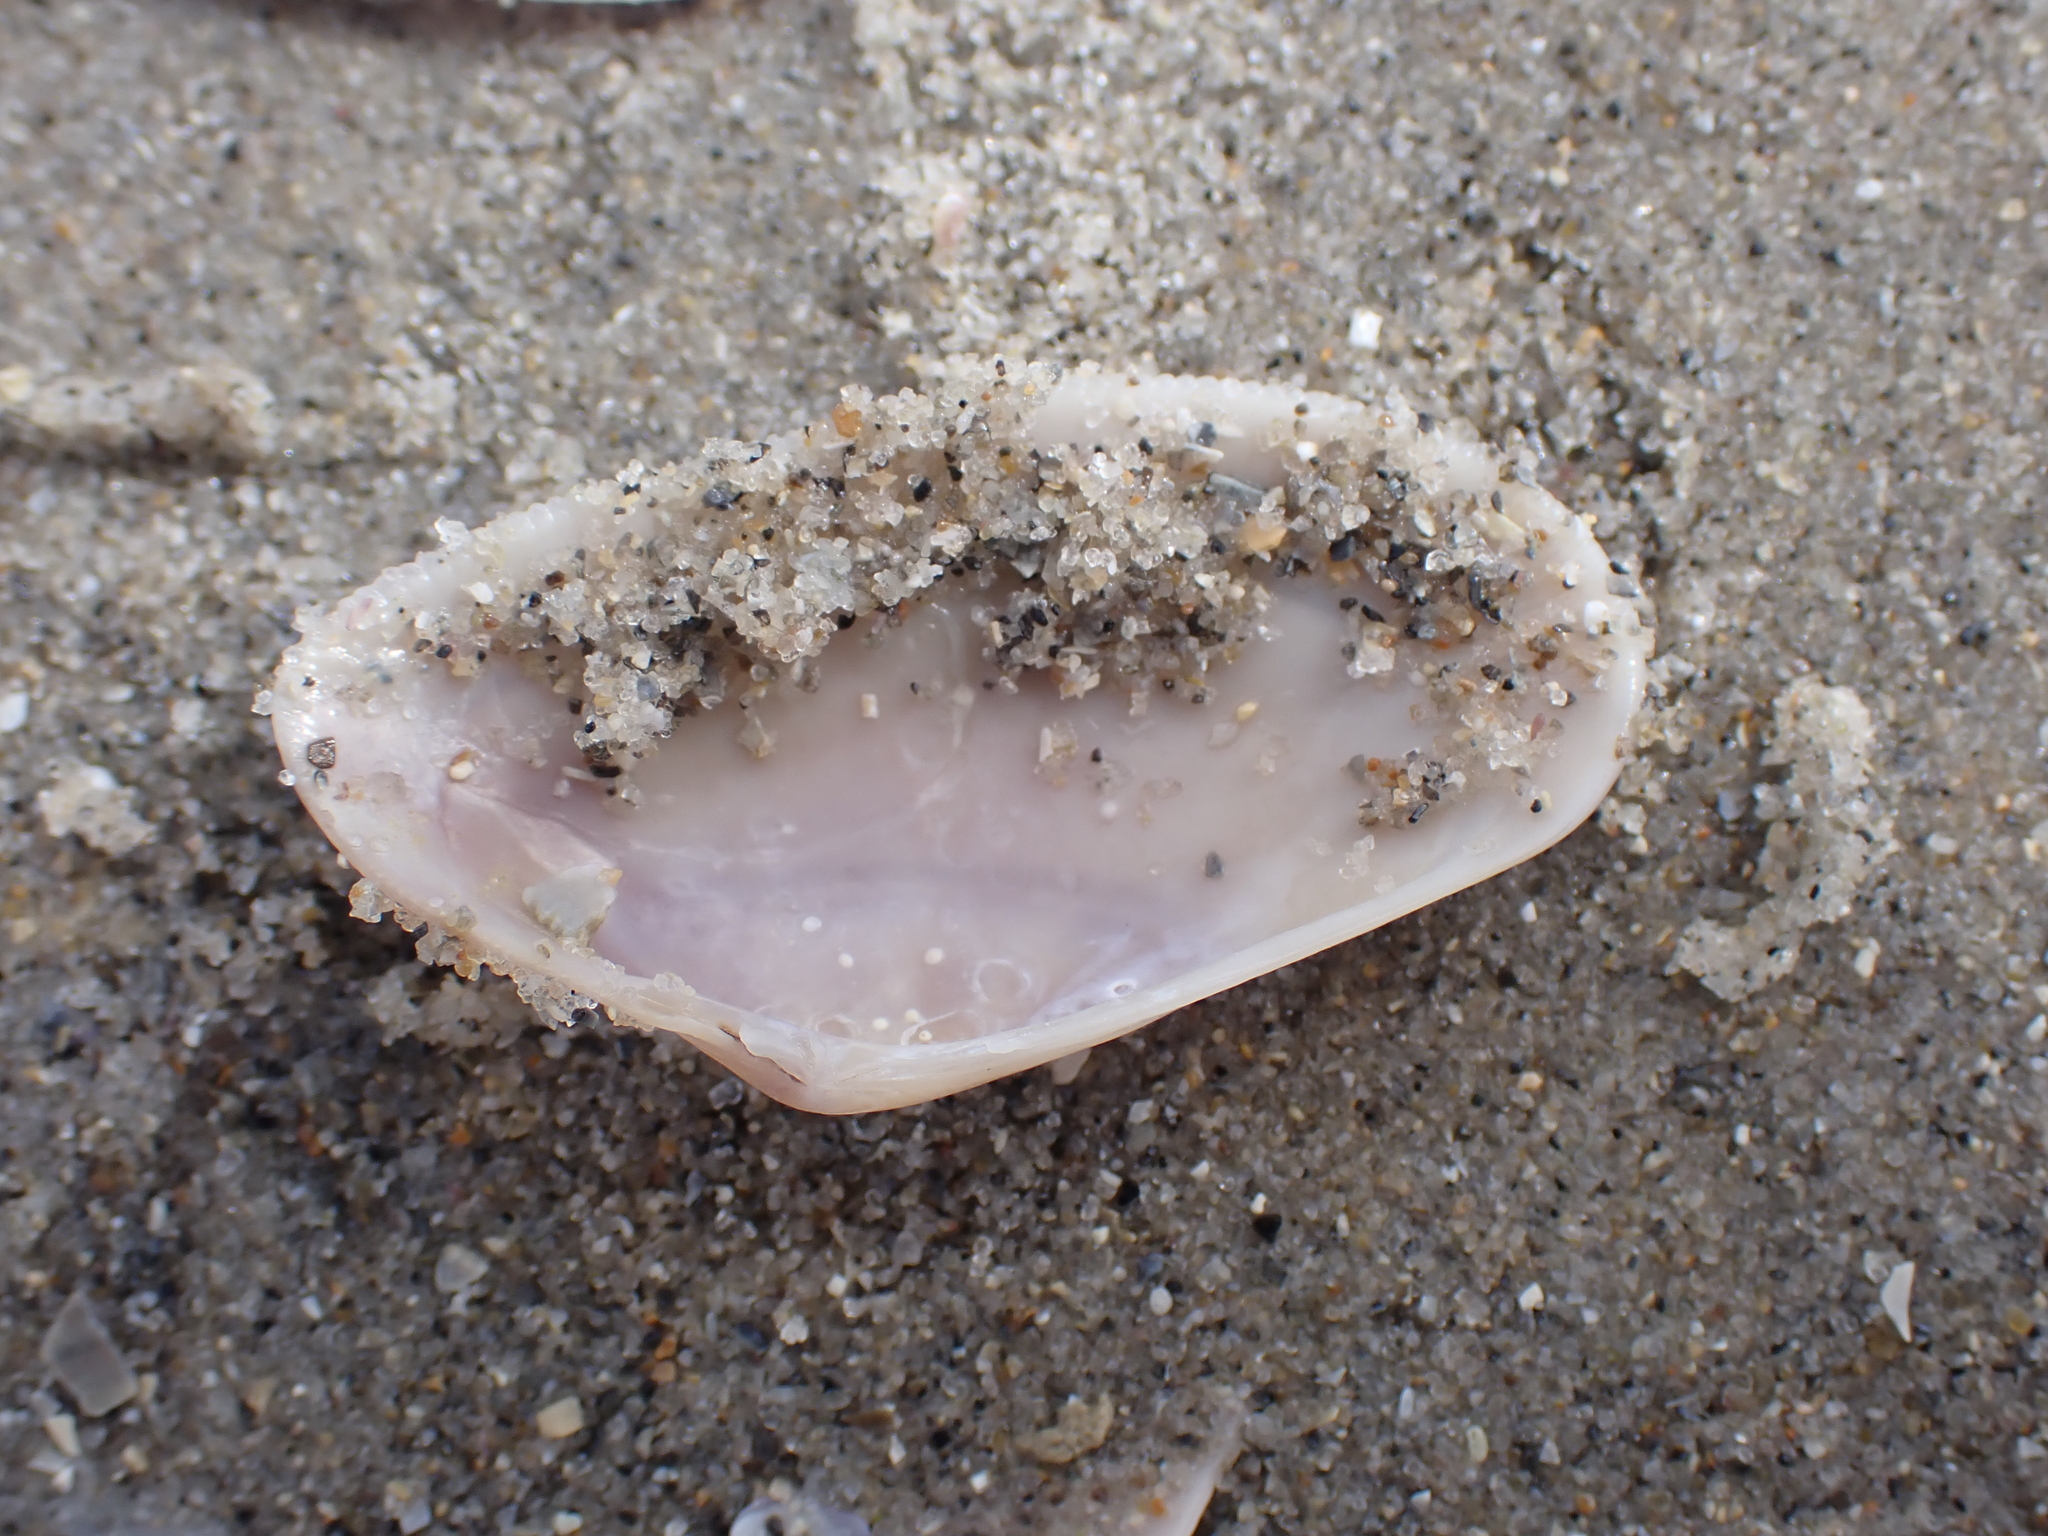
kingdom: Animalia
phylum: Mollusca
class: Bivalvia
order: Cardiida
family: Donacidae
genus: Donax
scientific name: Donax vittatus
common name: Banded wedge-shell
